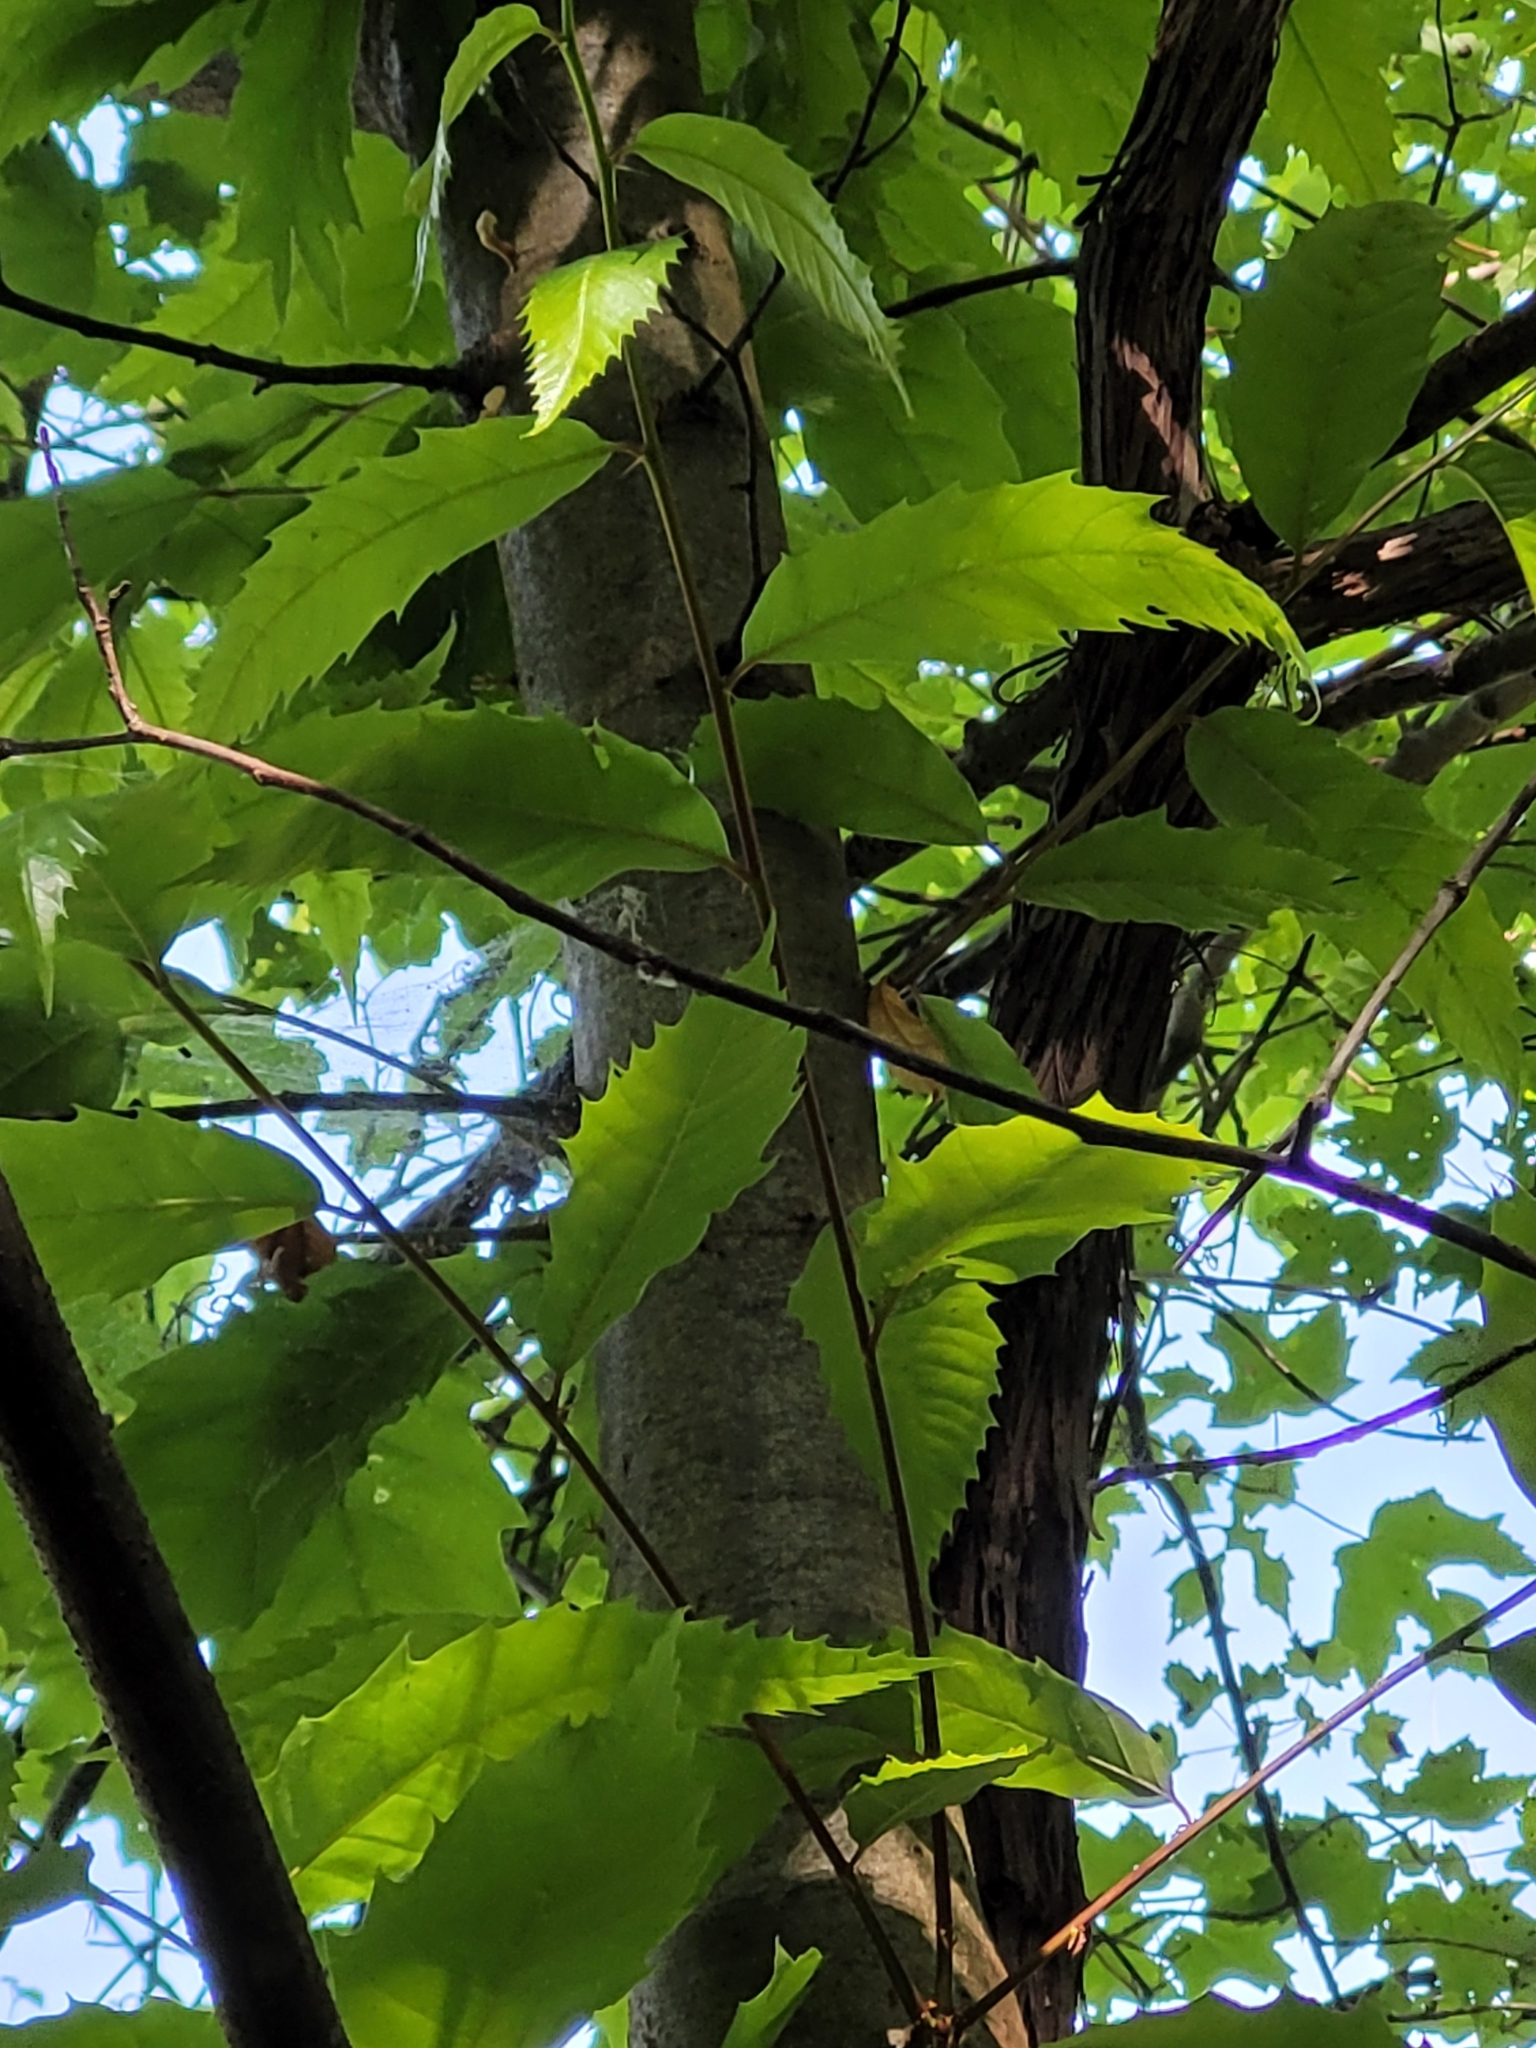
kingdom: Plantae
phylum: Tracheophyta
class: Magnoliopsida
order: Fagales
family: Fagaceae
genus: Castanea
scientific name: Castanea dentata
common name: American chestnut
